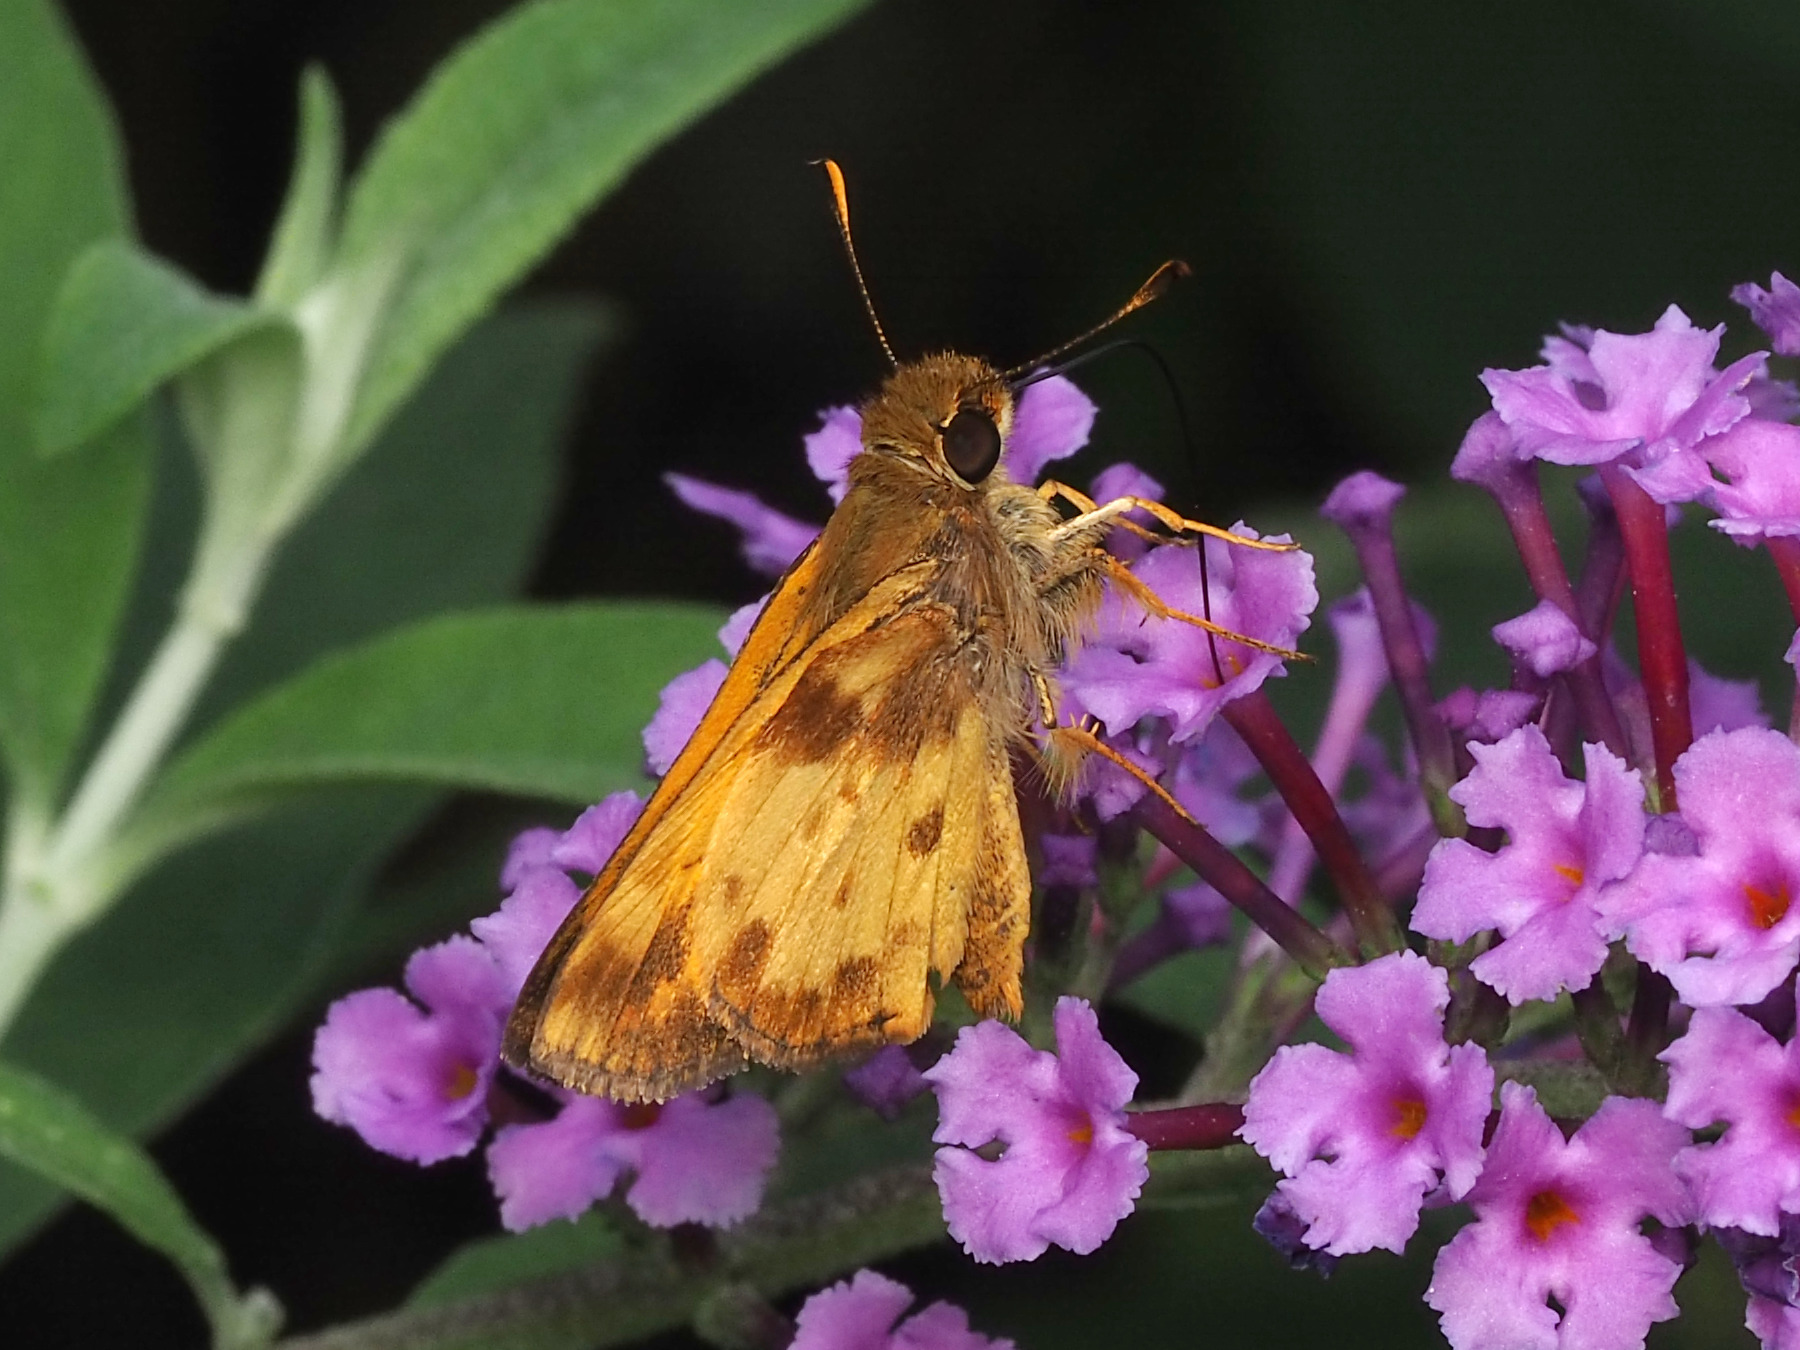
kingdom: Animalia
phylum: Arthropoda
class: Insecta
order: Lepidoptera
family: Hesperiidae
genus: Lon
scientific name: Lon zabulon
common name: Zabulon skipper
